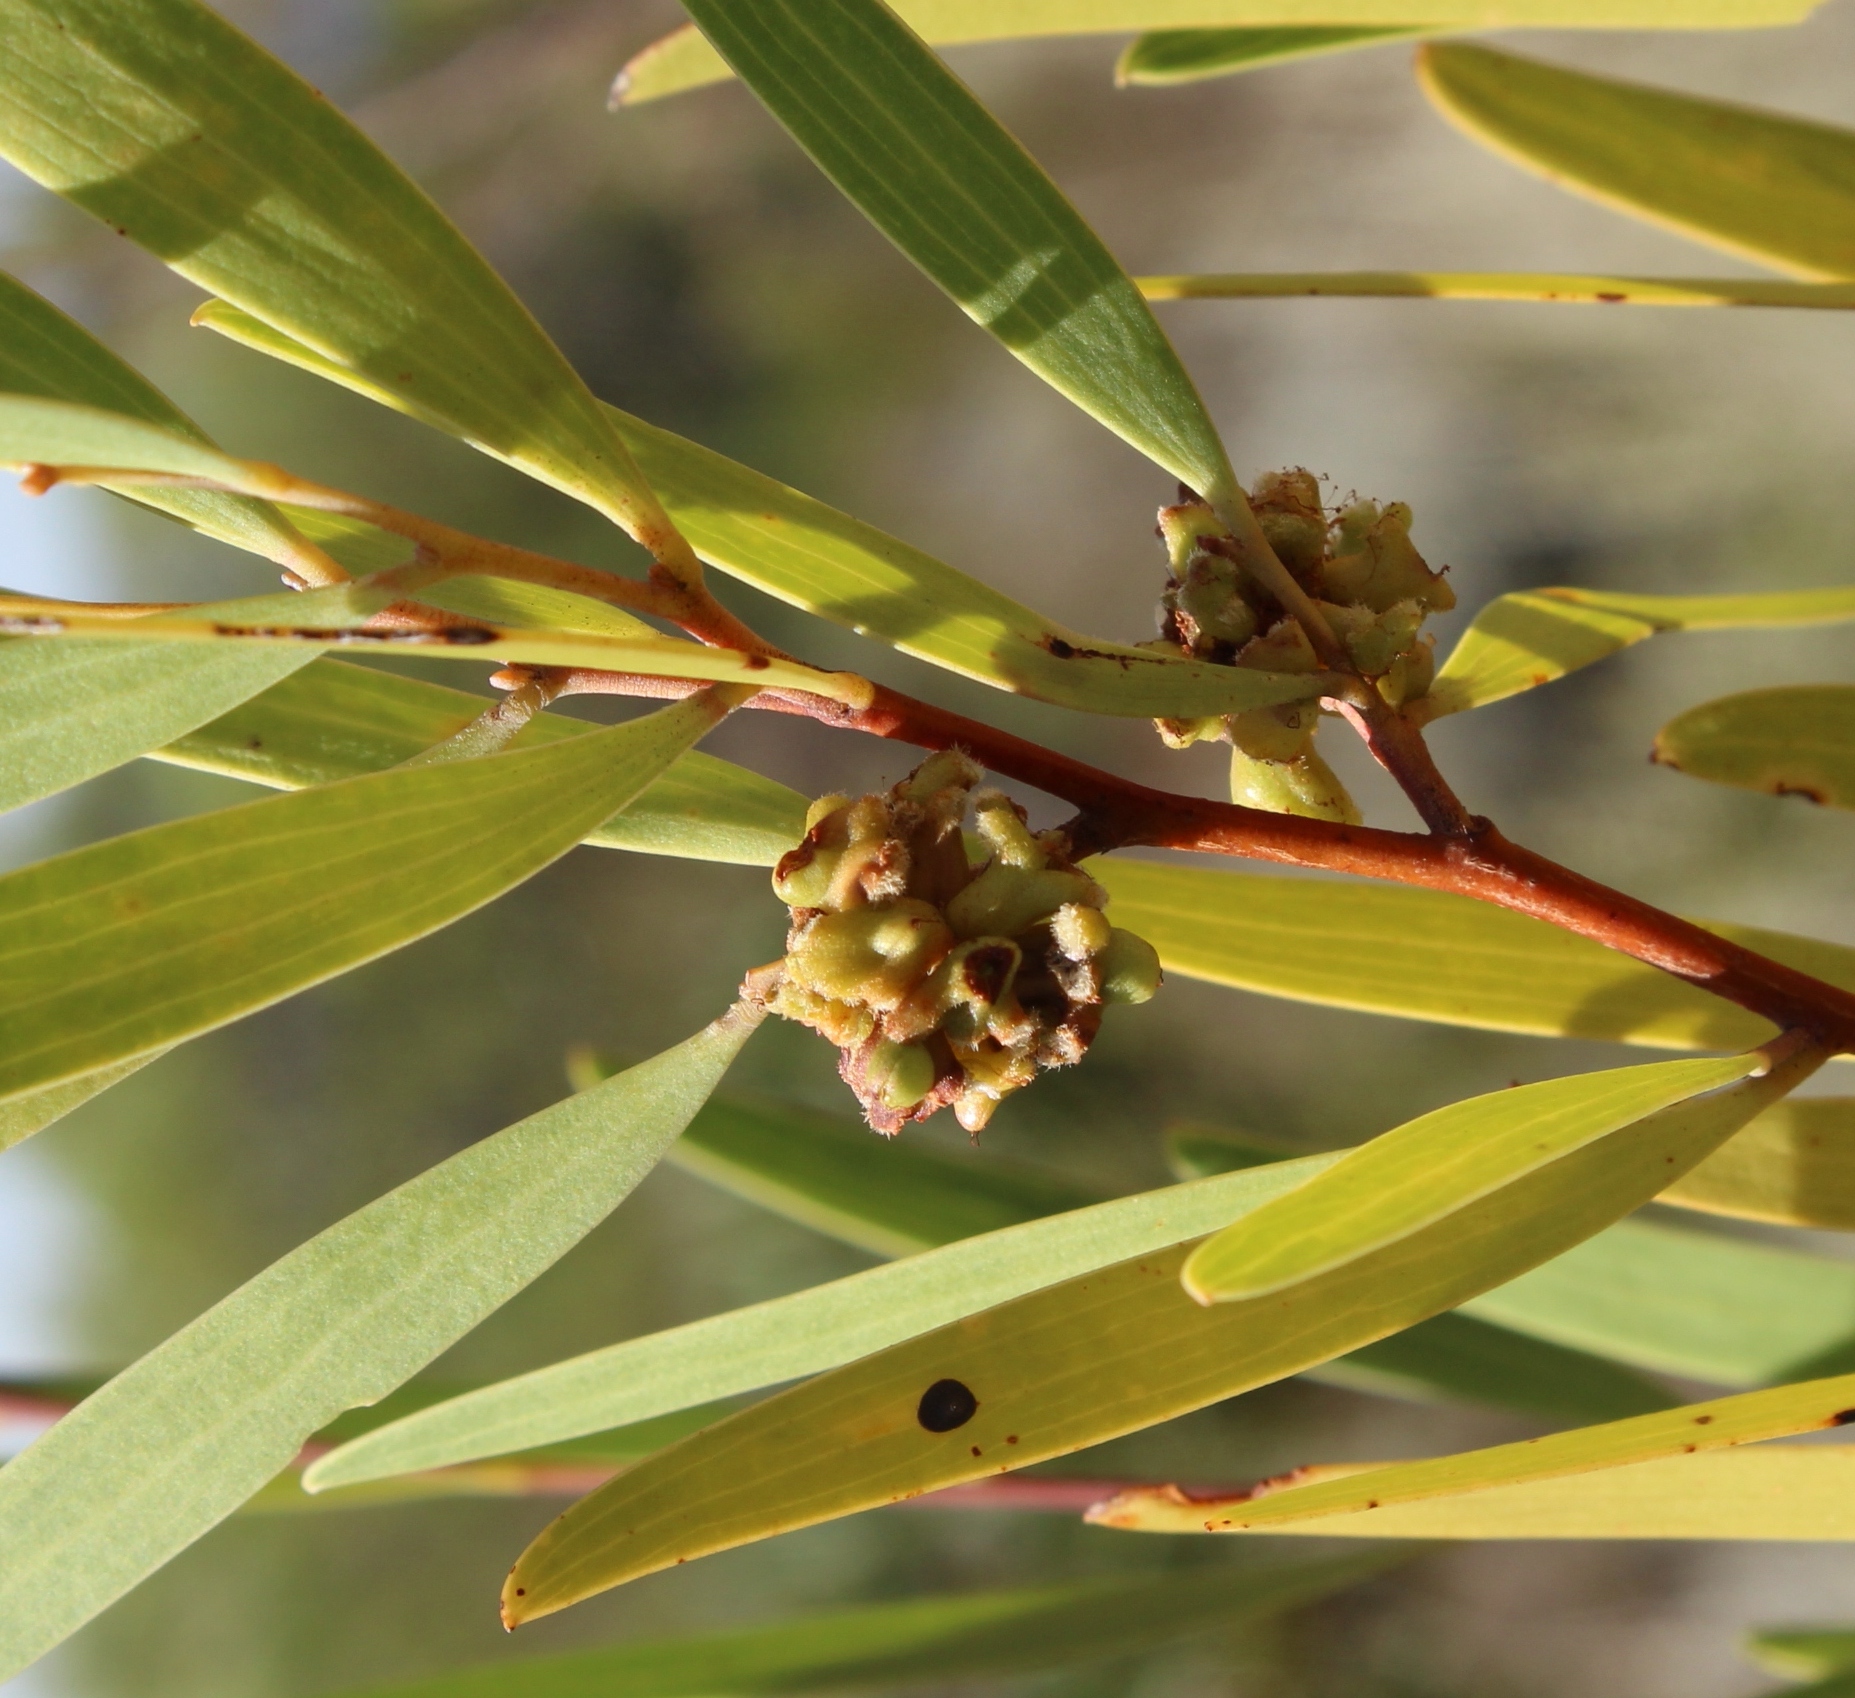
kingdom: Animalia
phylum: Arthropoda
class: Insecta
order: Diptera
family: Cecidomyiidae
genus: Dasineura
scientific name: Dasineura dielsi
